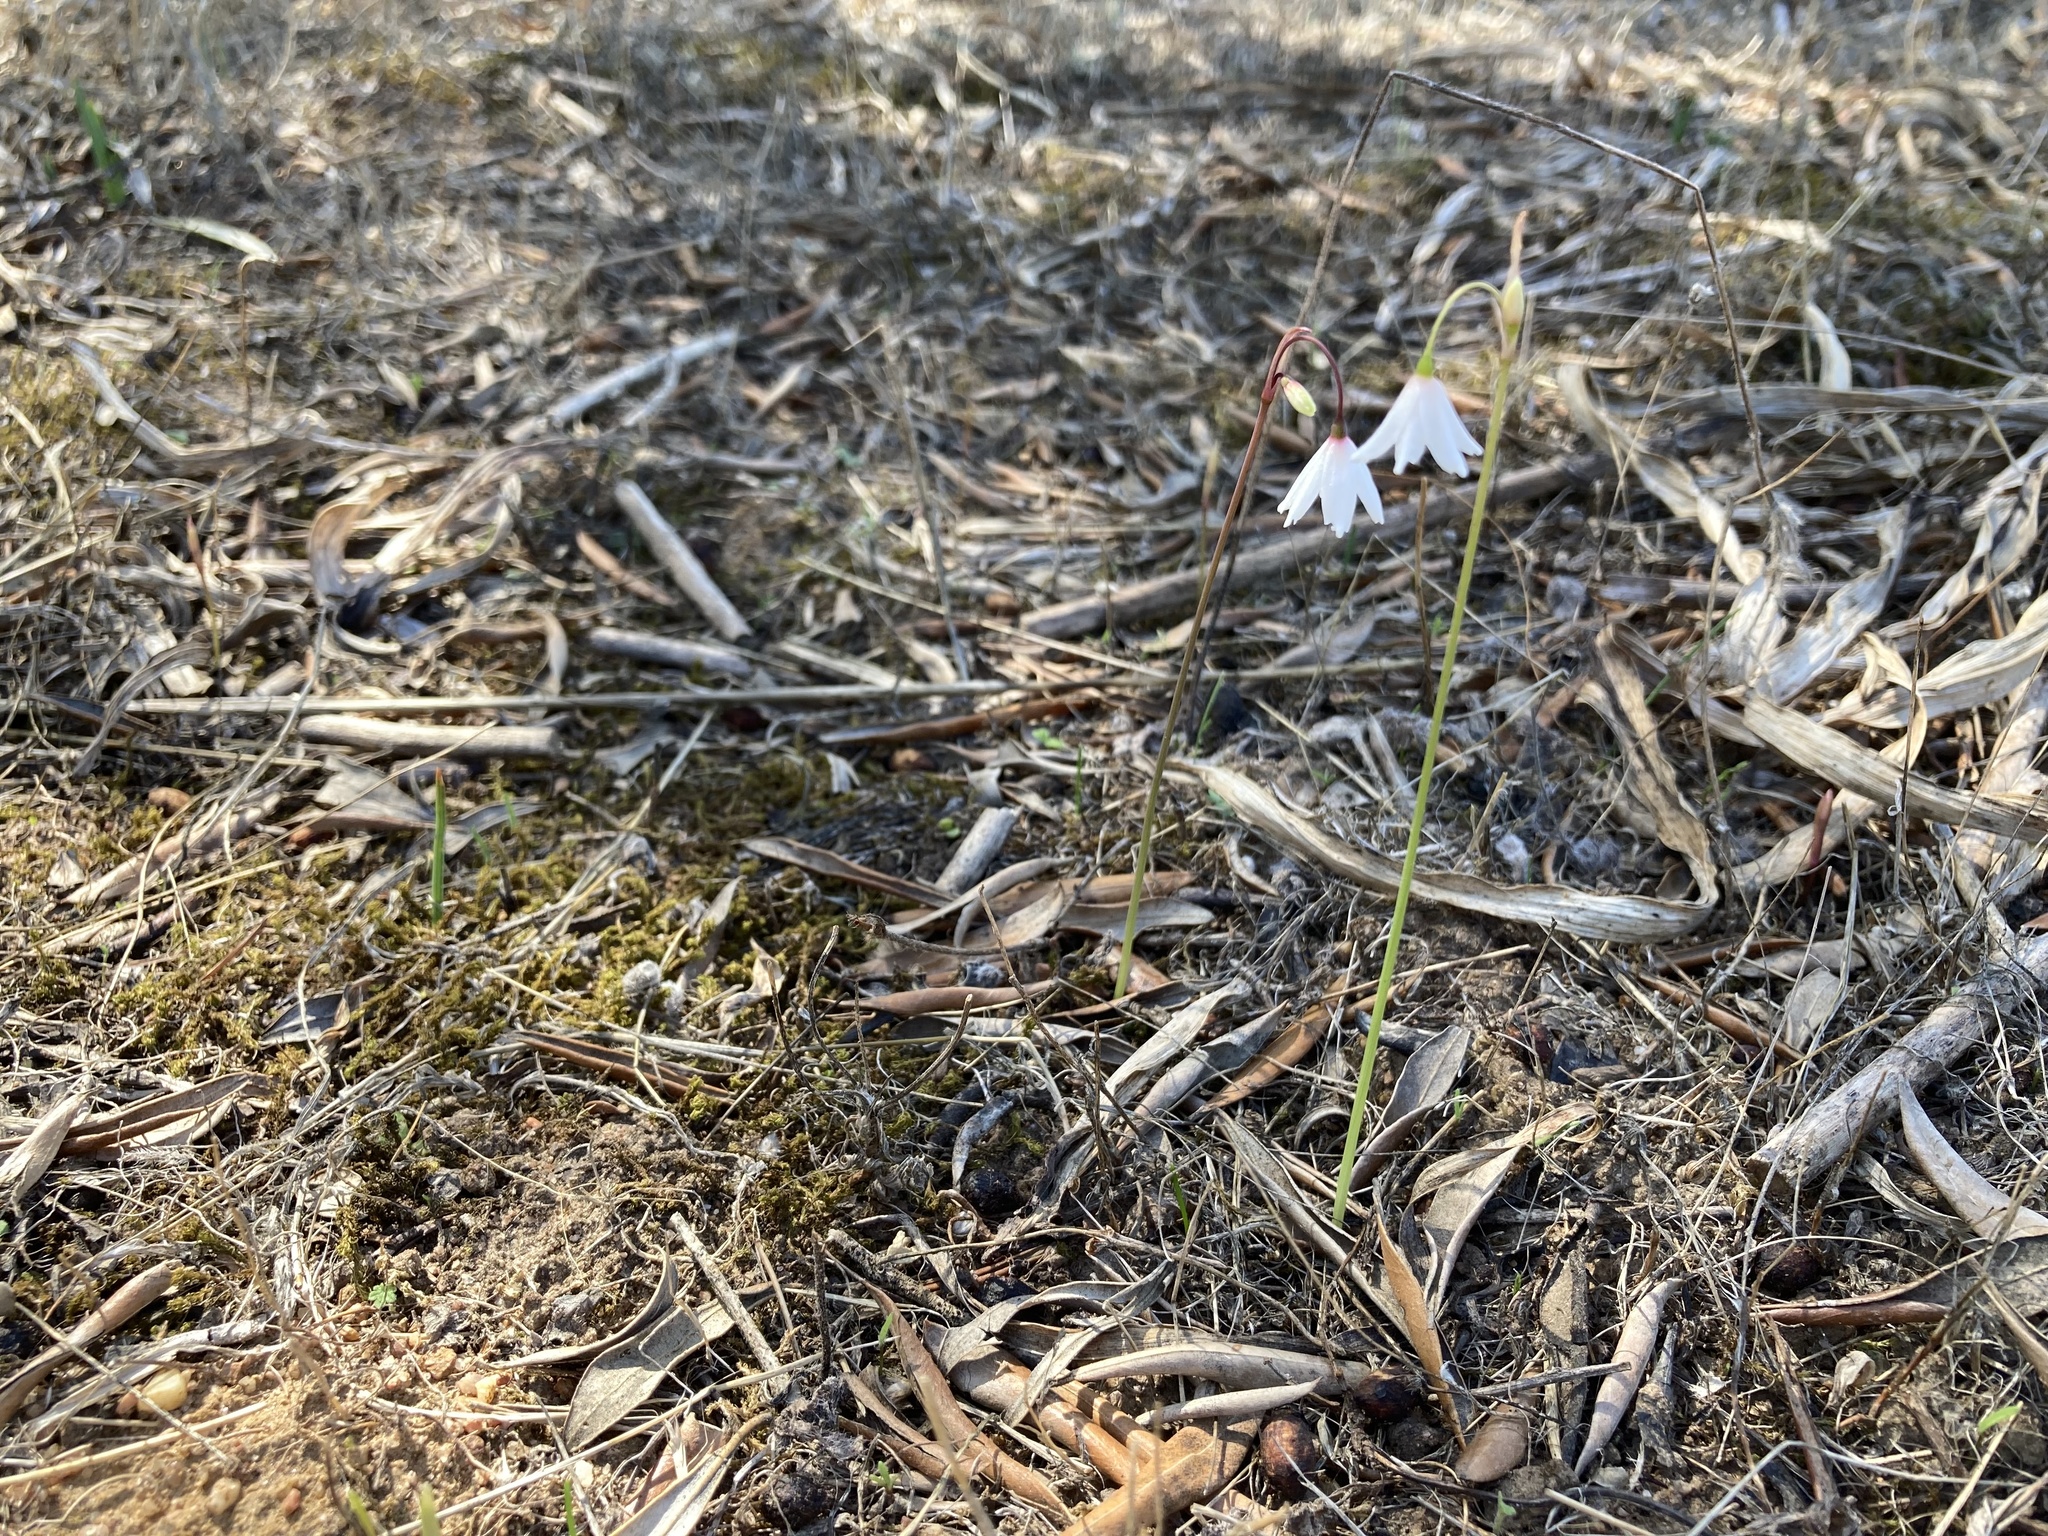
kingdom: Plantae
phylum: Tracheophyta
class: Liliopsida
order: Asparagales
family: Amaryllidaceae
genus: Acis
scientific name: Acis autumnalis
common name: Autumn snowflake
